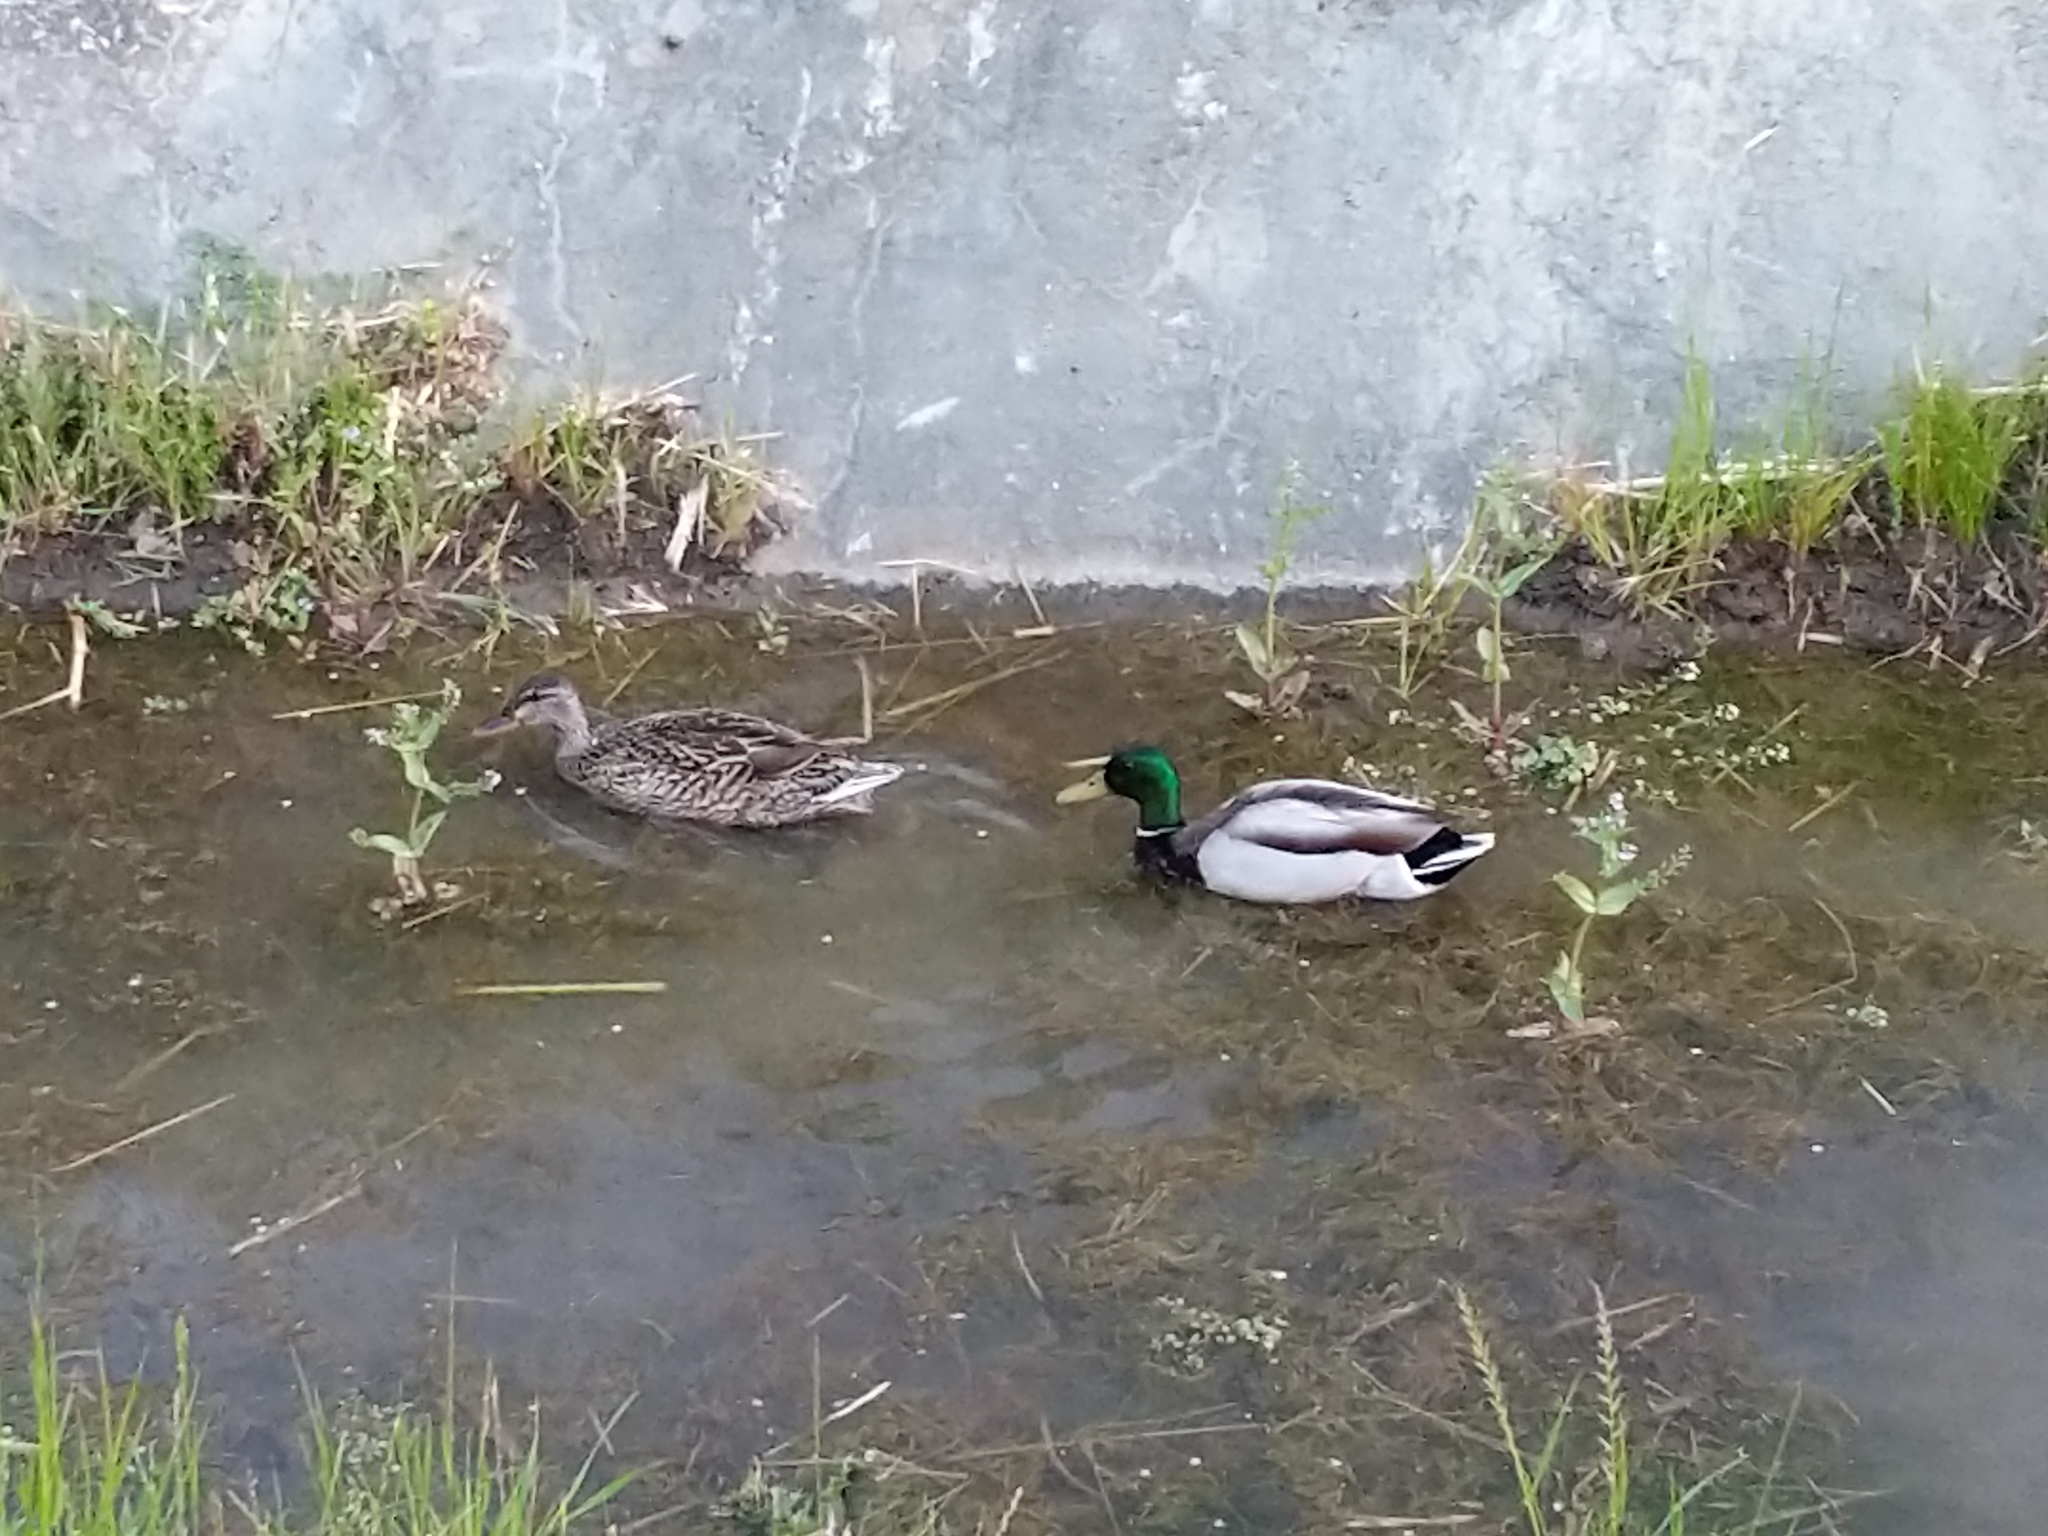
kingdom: Animalia
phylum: Chordata
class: Aves
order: Anseriformes
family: Anatidae
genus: Anas
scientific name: Anas platyrhynchos
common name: Mallard
